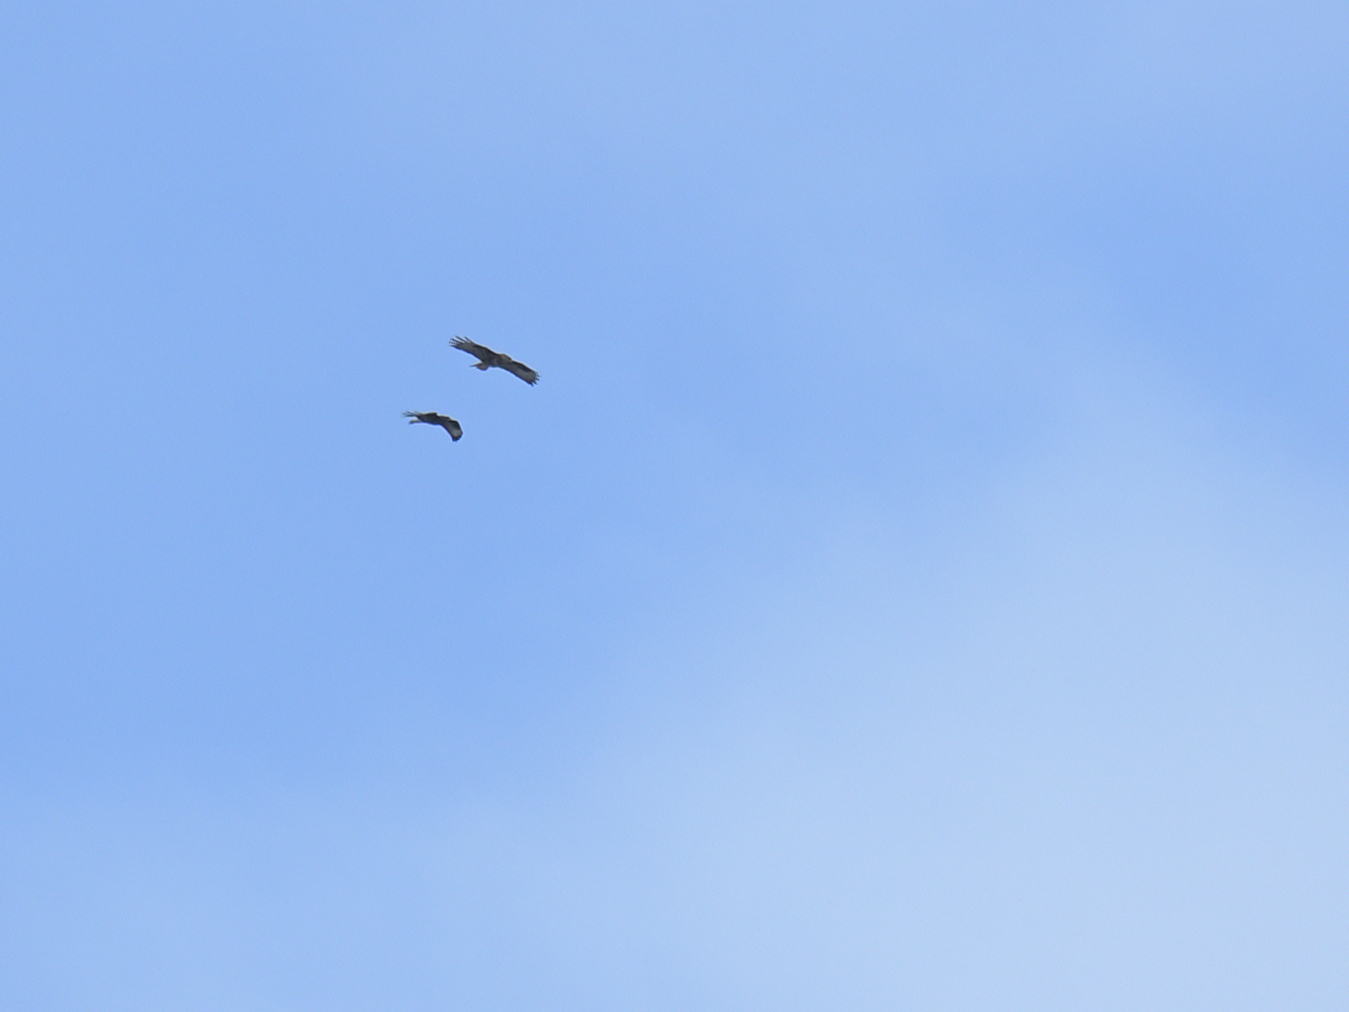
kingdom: Animalia
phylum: Chordata
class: Aves
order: Accipitriformes
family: Accipitridae
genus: Buteo
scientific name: Buteo buteo
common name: Common buzzard
